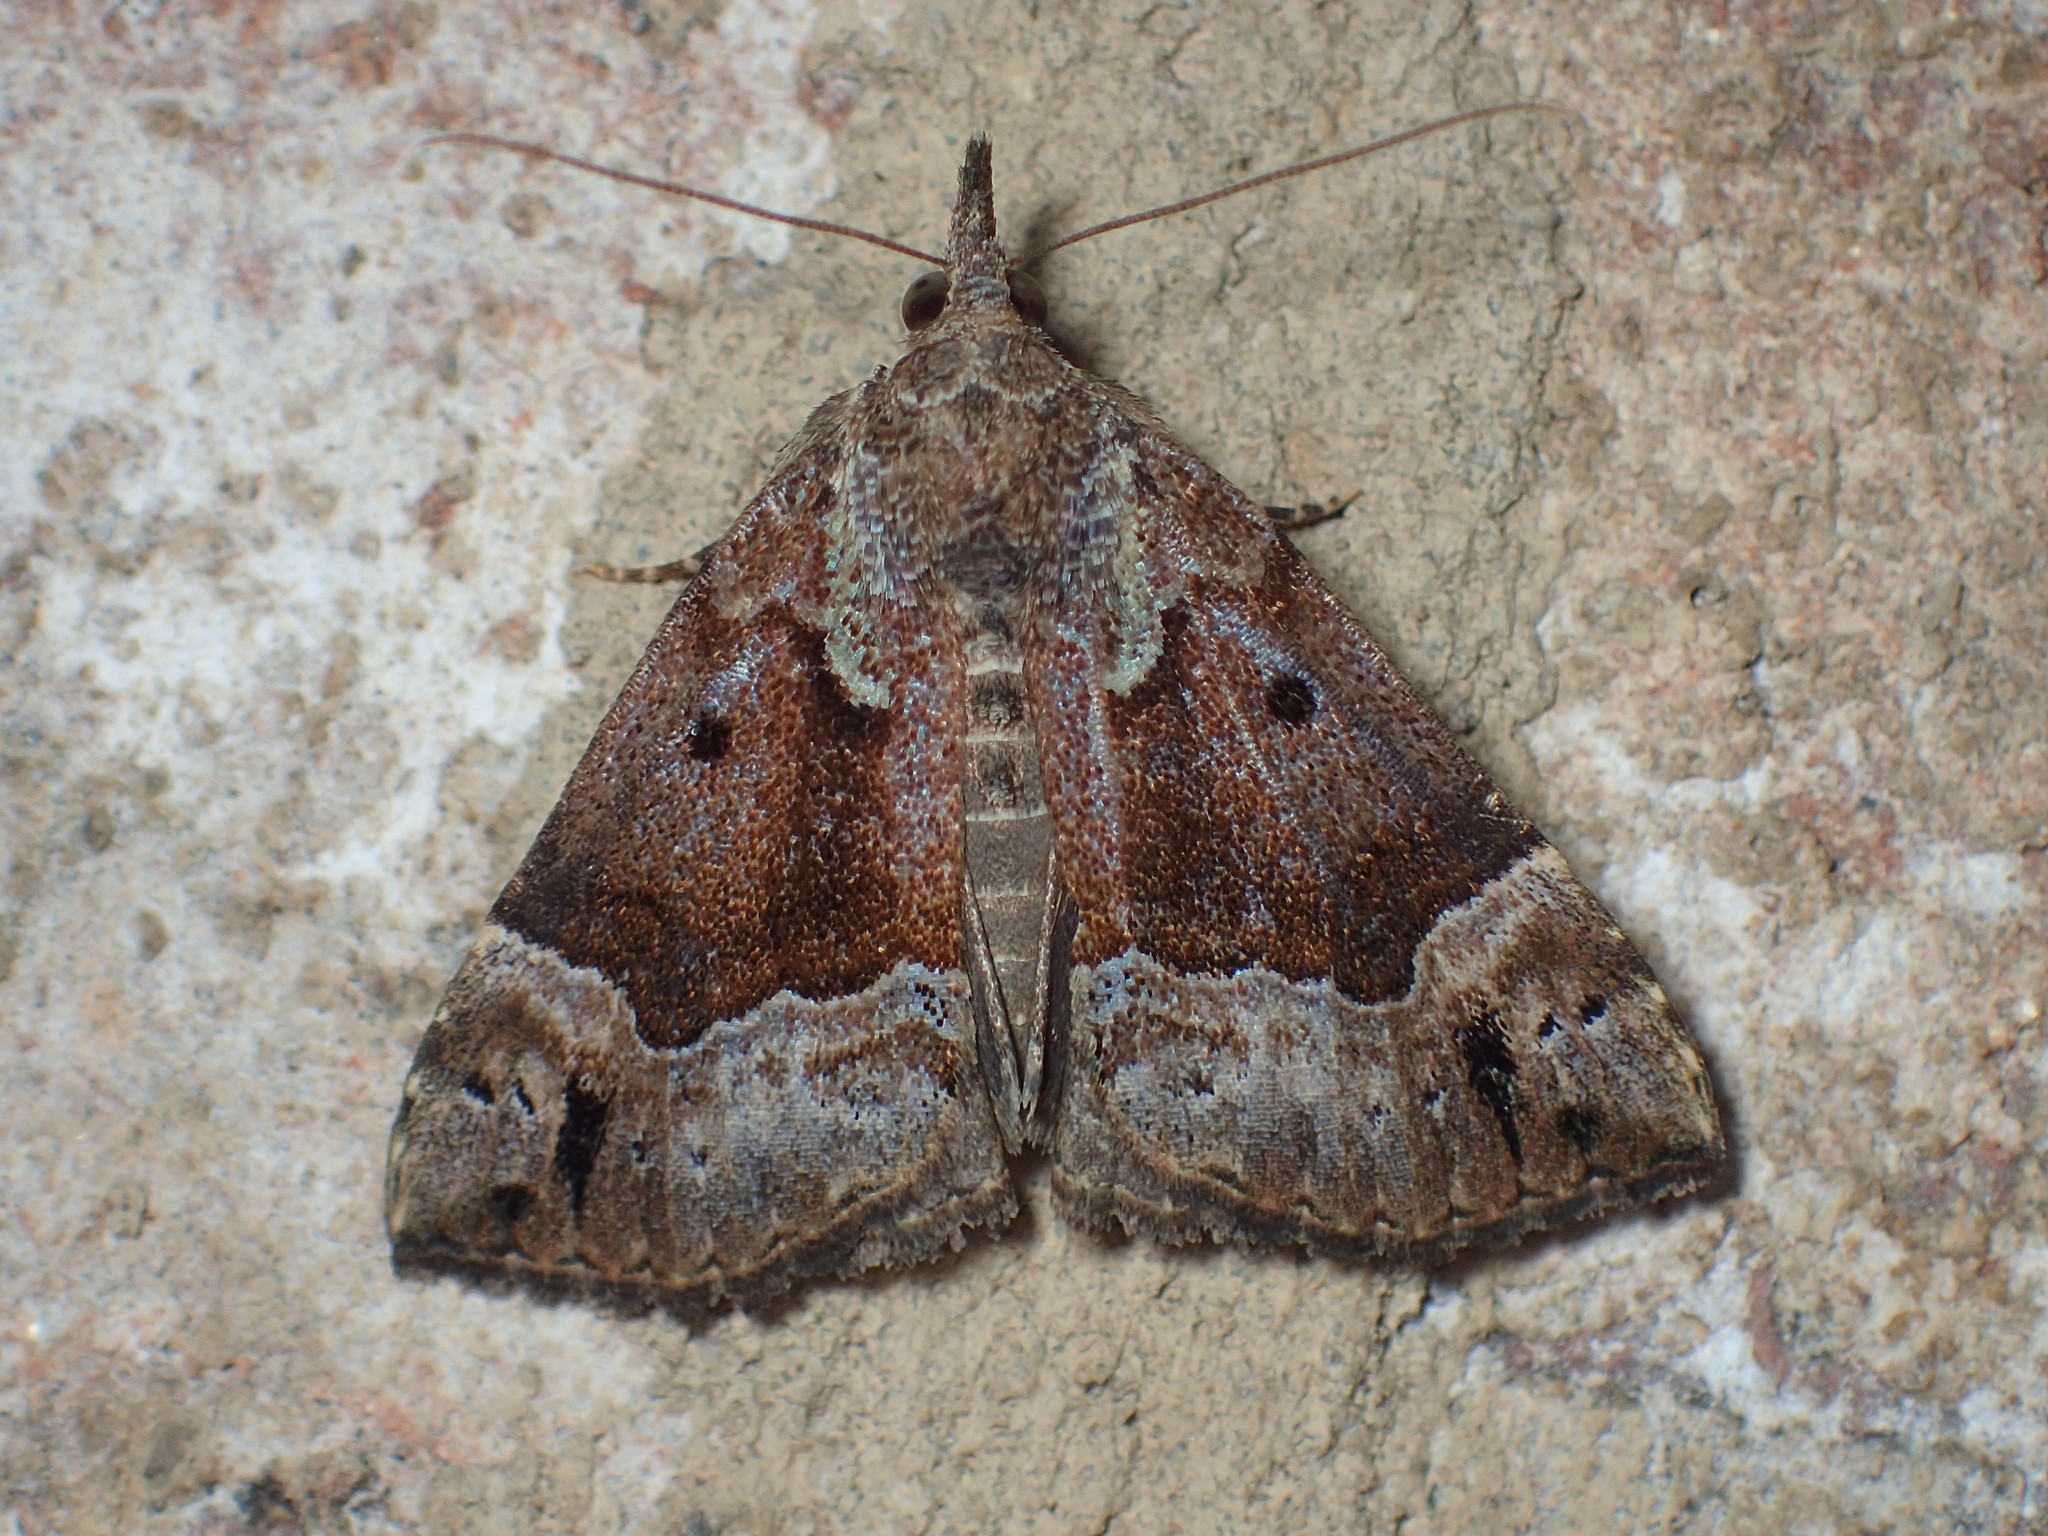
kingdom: Animalia
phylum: Arthropoda
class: Insecta
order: Lepidoptera
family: Erebidae
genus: Hypena
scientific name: Hypena palparia
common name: Mottled bomolocha moth
